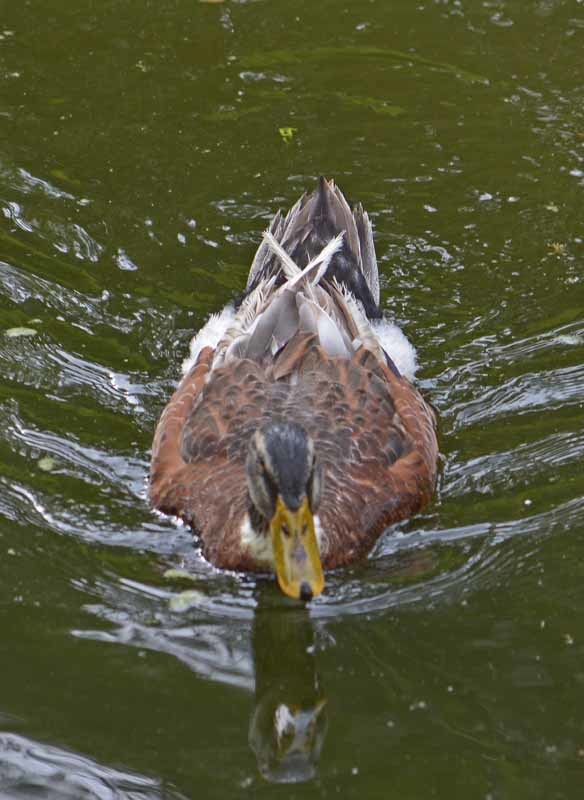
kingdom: Animalia
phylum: Chordata
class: Aves
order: Anseriformes
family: Anatidae
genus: Anas
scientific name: Anas platyrhynchos
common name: Mallard
